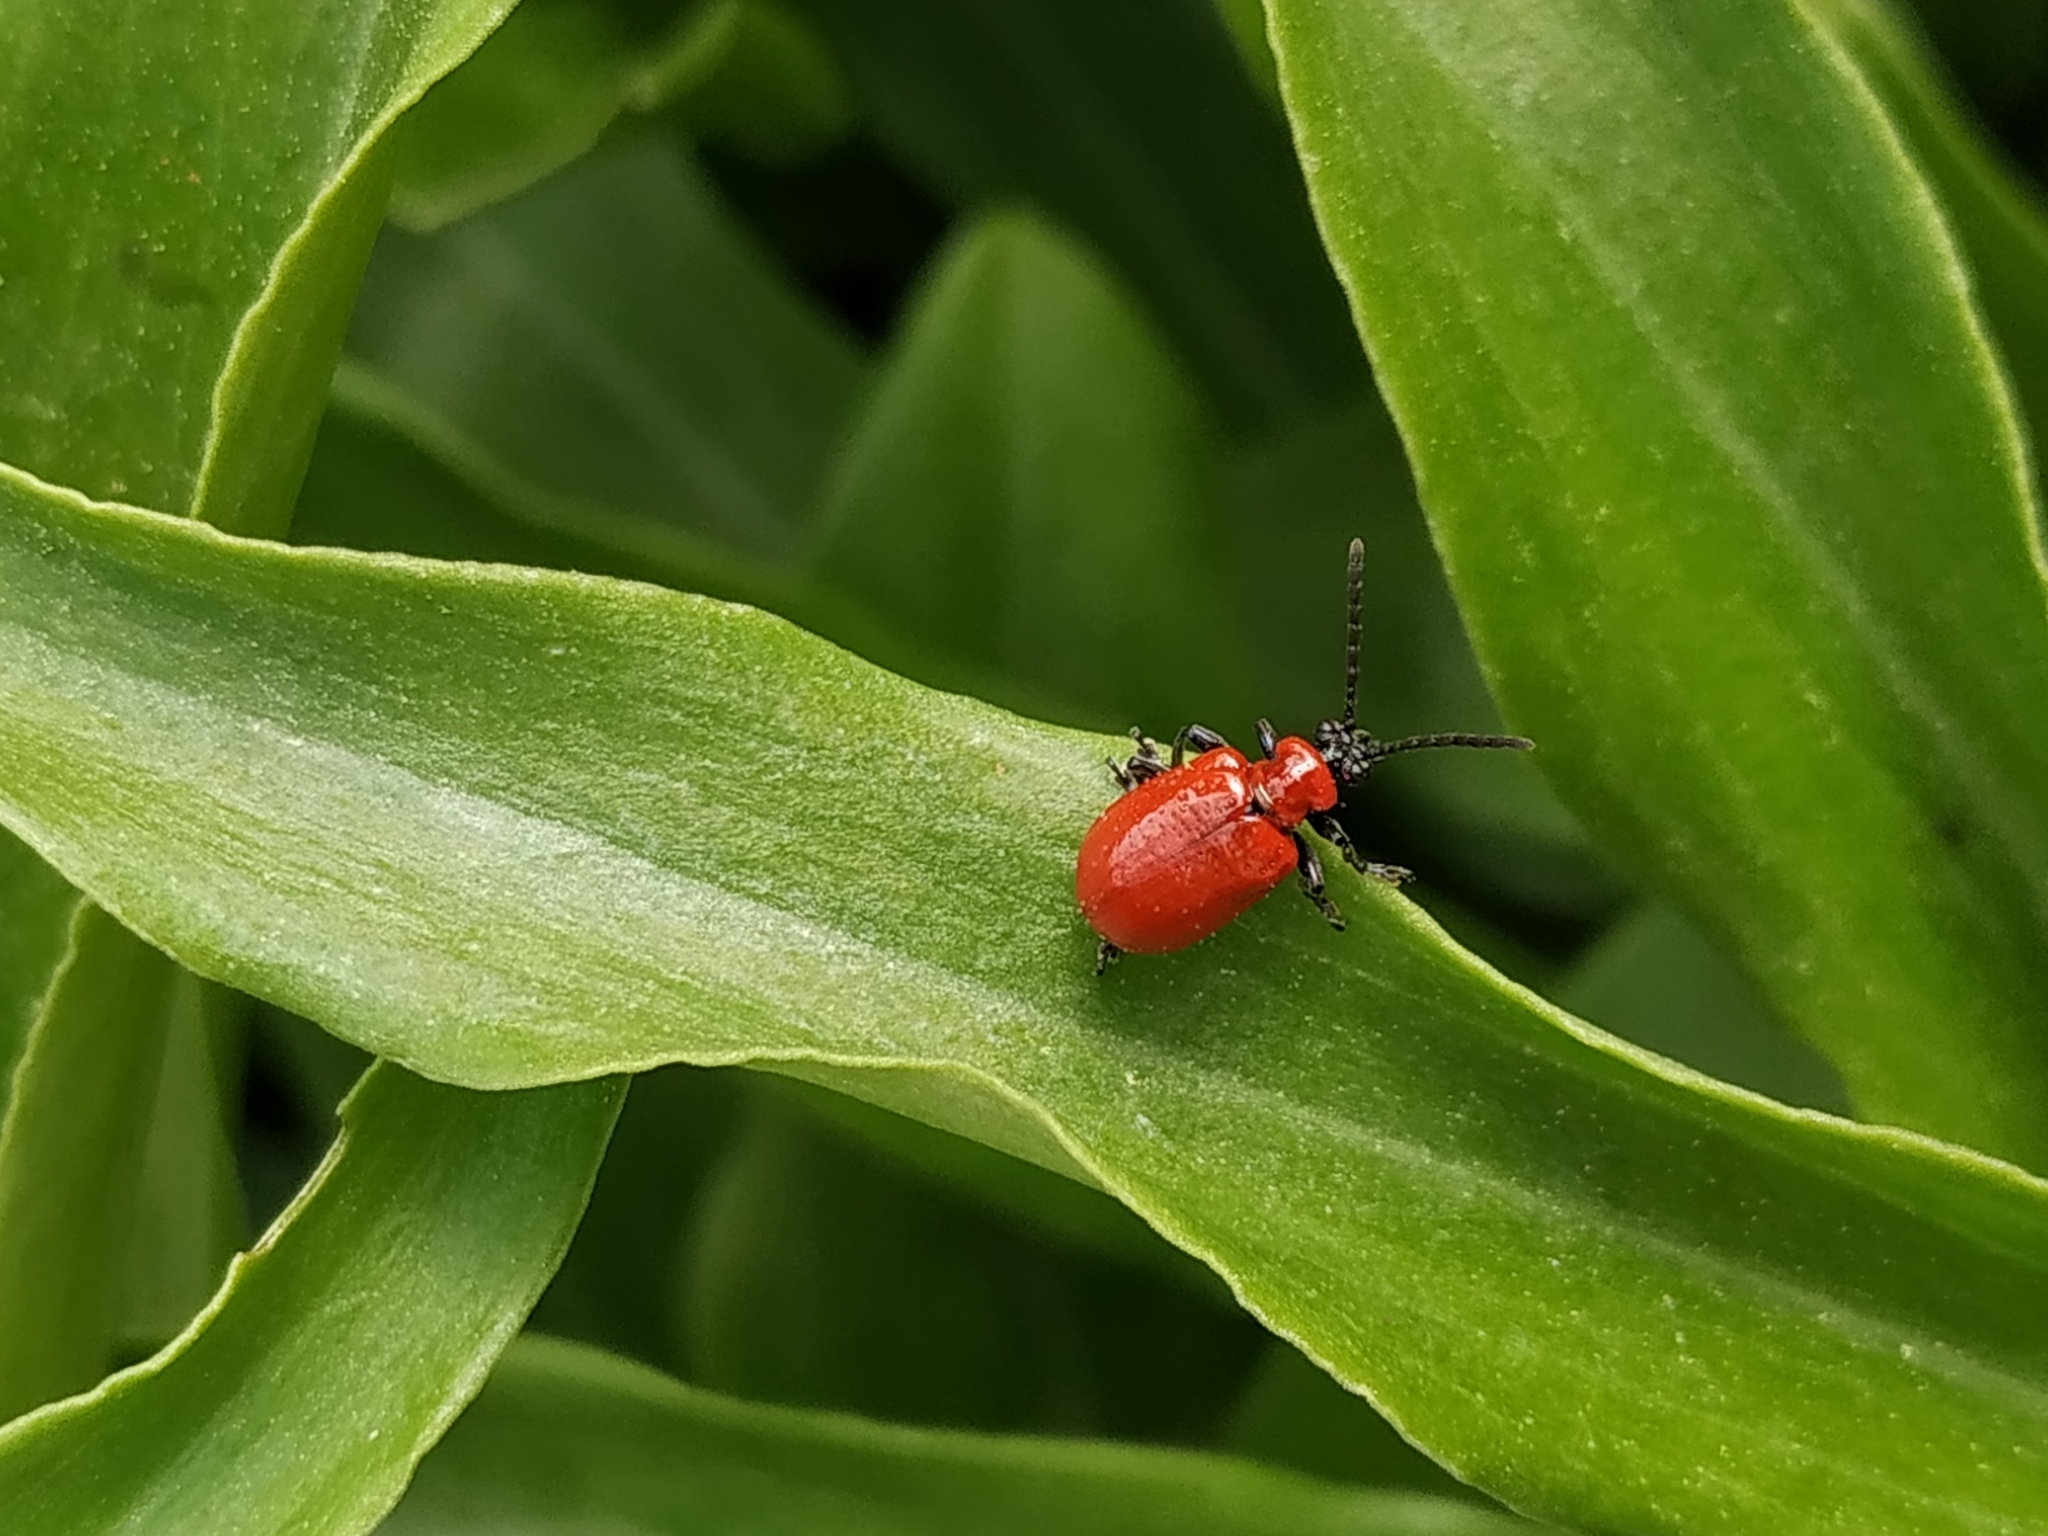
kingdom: Animalia
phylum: Arthropoda
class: Insecta
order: Coleoptera
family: Chrysomelidae
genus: Lilioceris
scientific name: Lilioceris lilii
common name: Lily beetle
